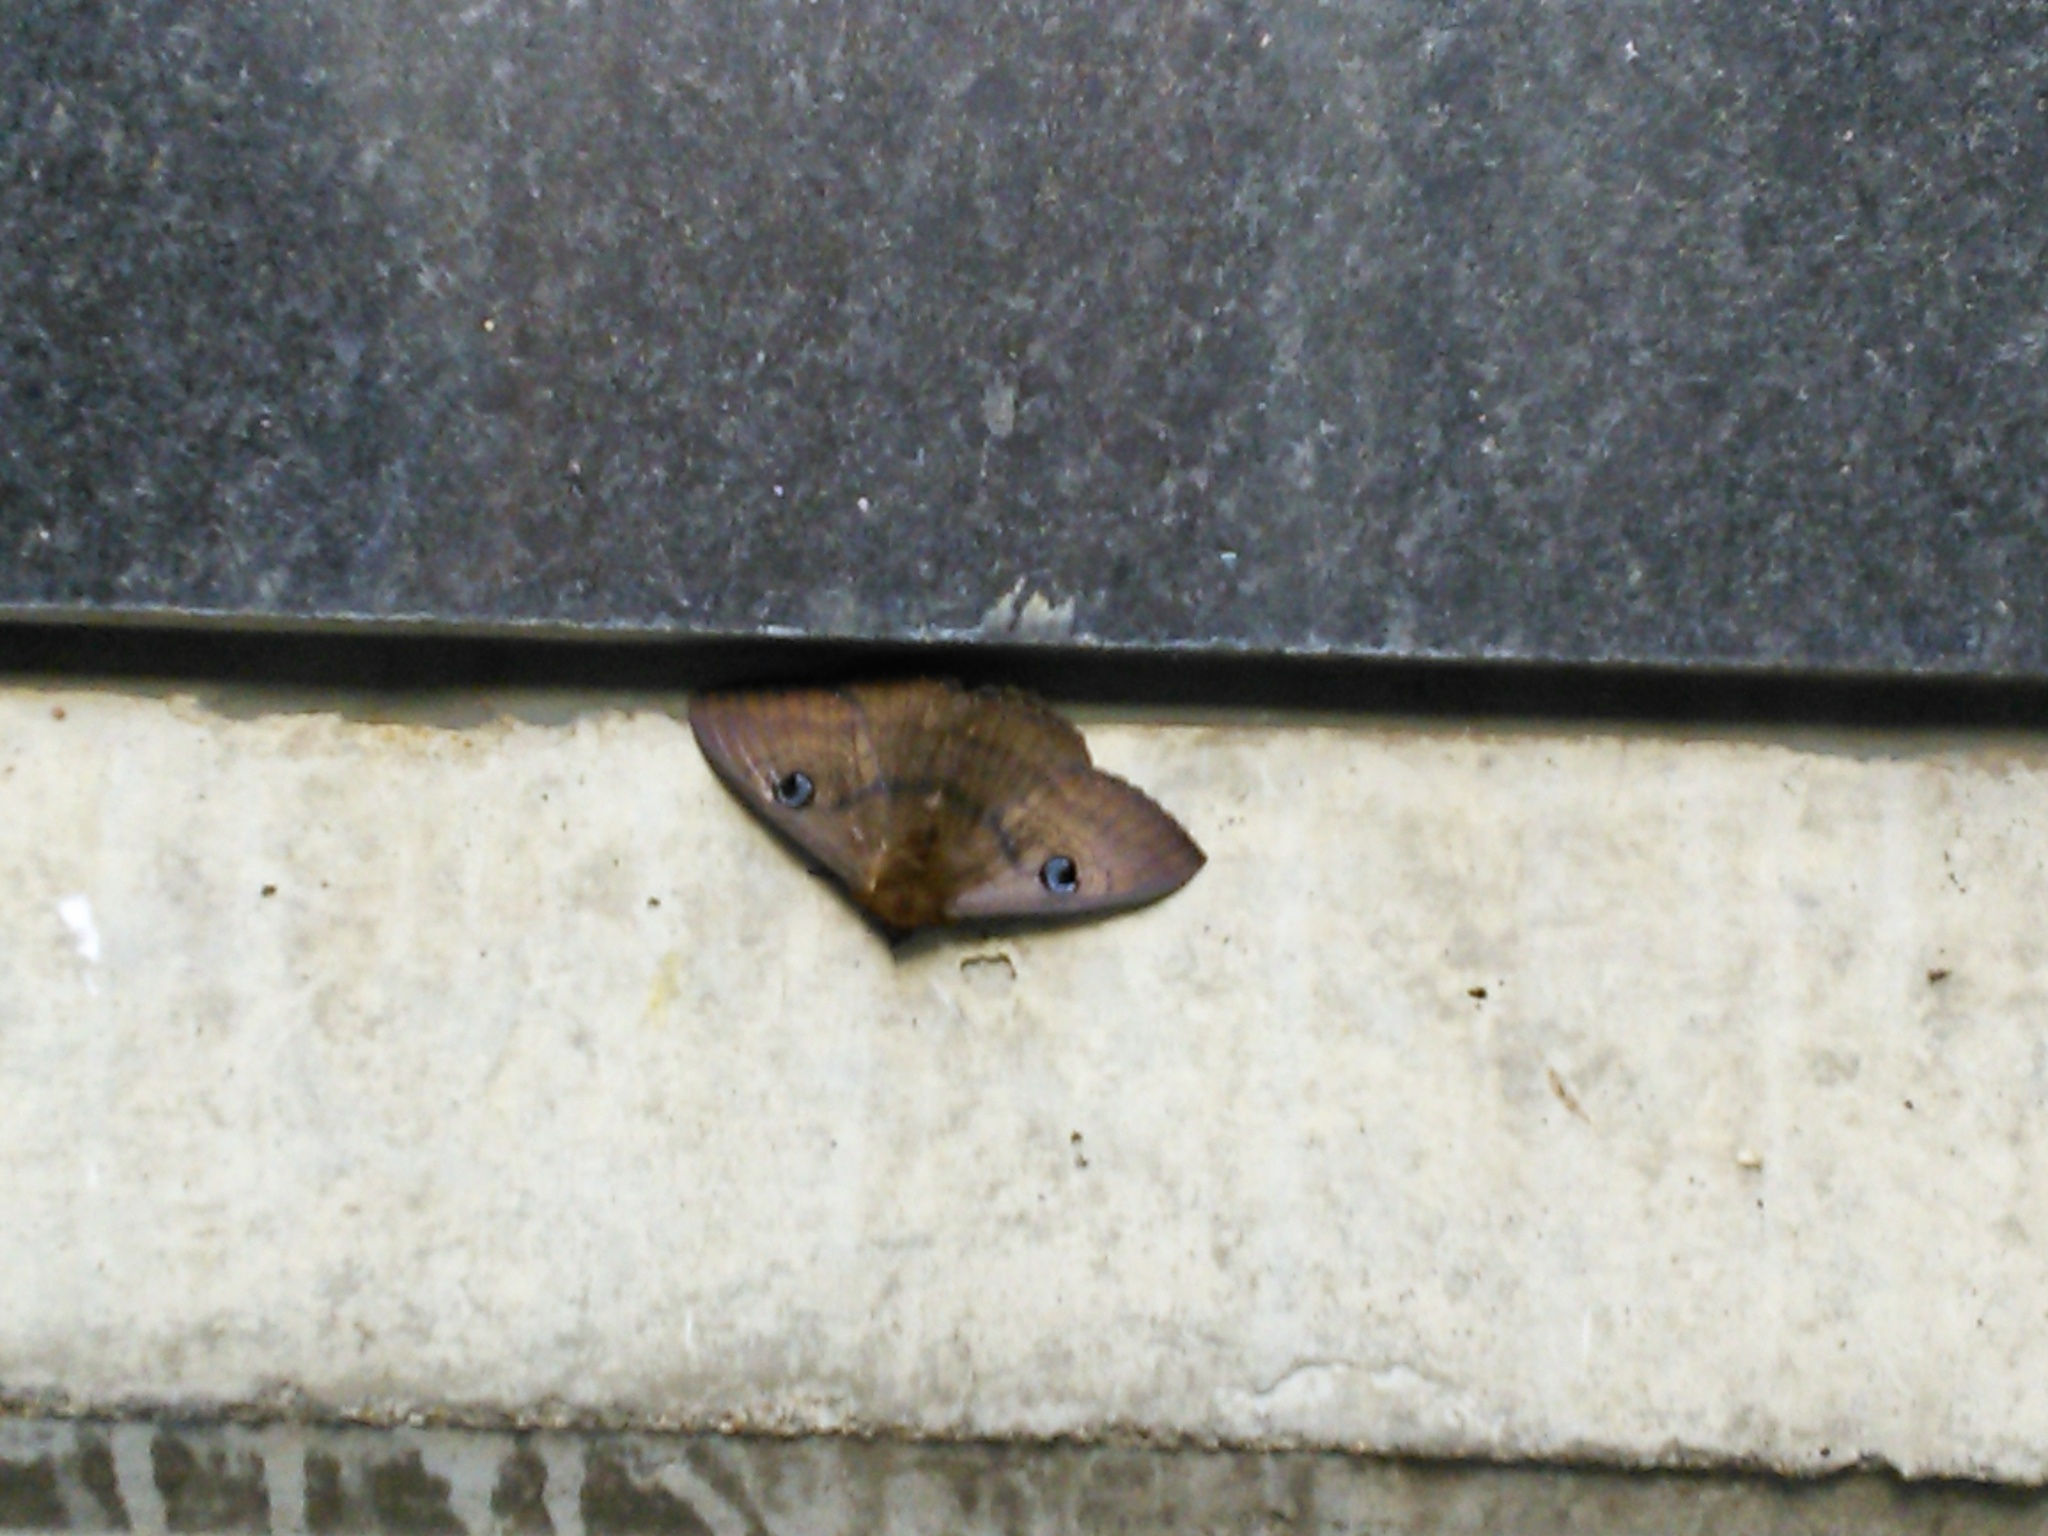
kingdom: Animalia
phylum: Arthropoda
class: Insecta
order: Lepidoptera
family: Erebidae
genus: Dasypodia
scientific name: Dasypodia selenophora
